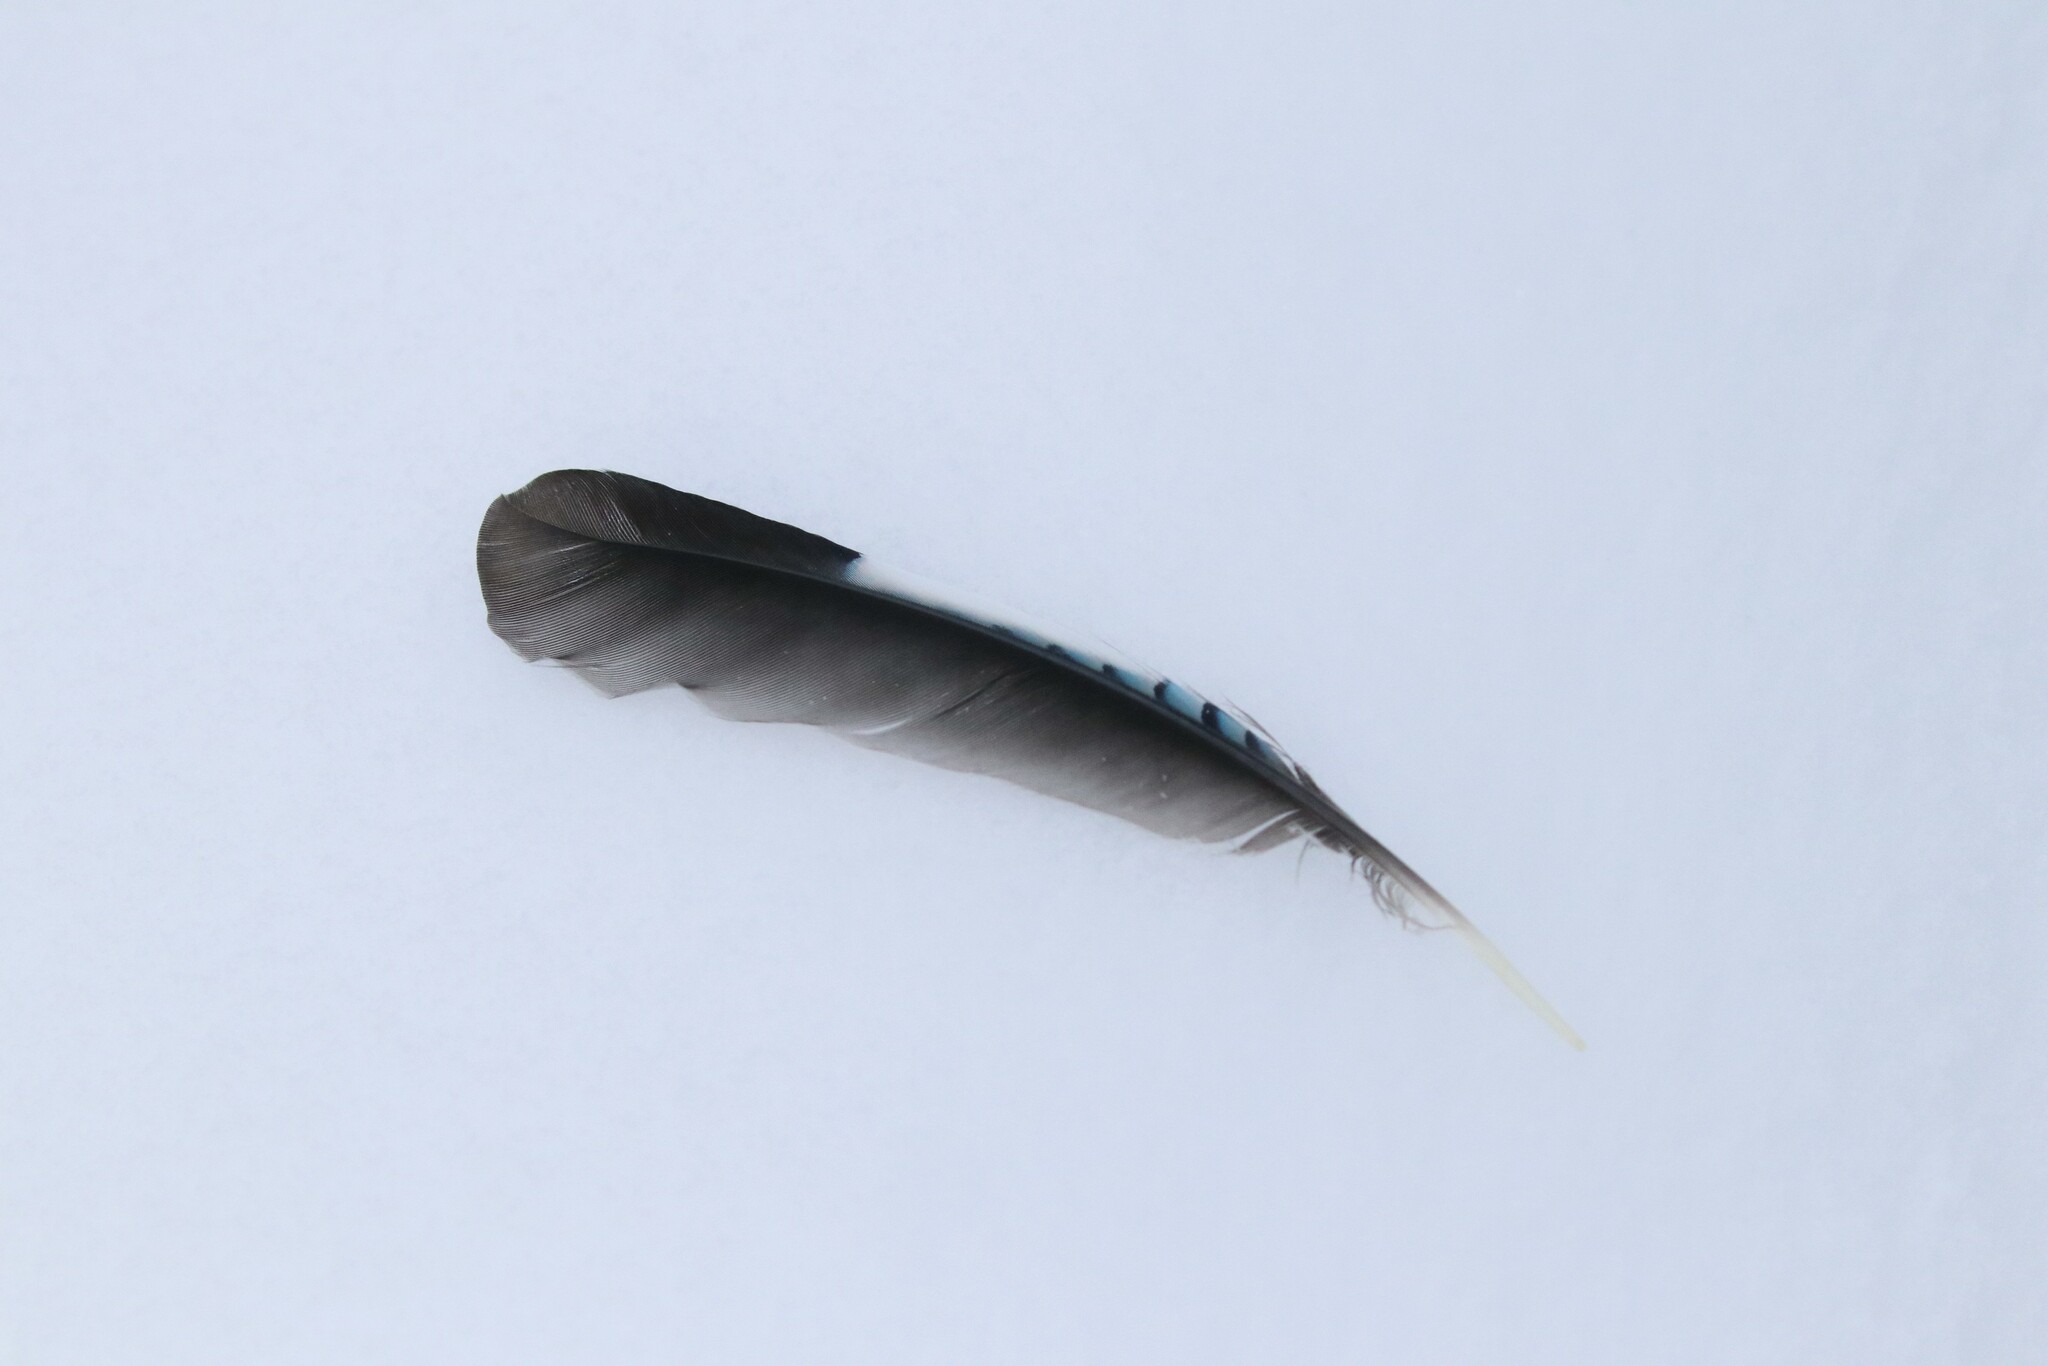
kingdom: Animalia
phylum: Chordata
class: Aves
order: Passeriformes
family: Corvidae
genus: Garrulus
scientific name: Garrulus glandarius
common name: Eurasian jay
